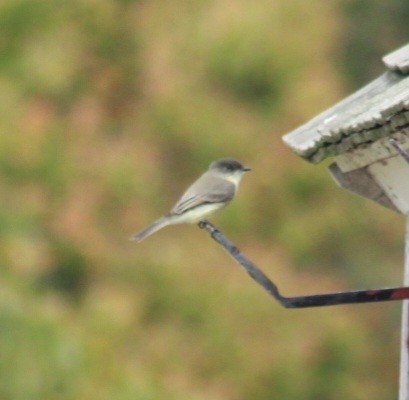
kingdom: Animalia
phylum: Chordata
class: Aves
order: Passeriformes
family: Tyrannidae
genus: Sayornis
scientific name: Sayornis phoebe
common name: Eastern phoebe
